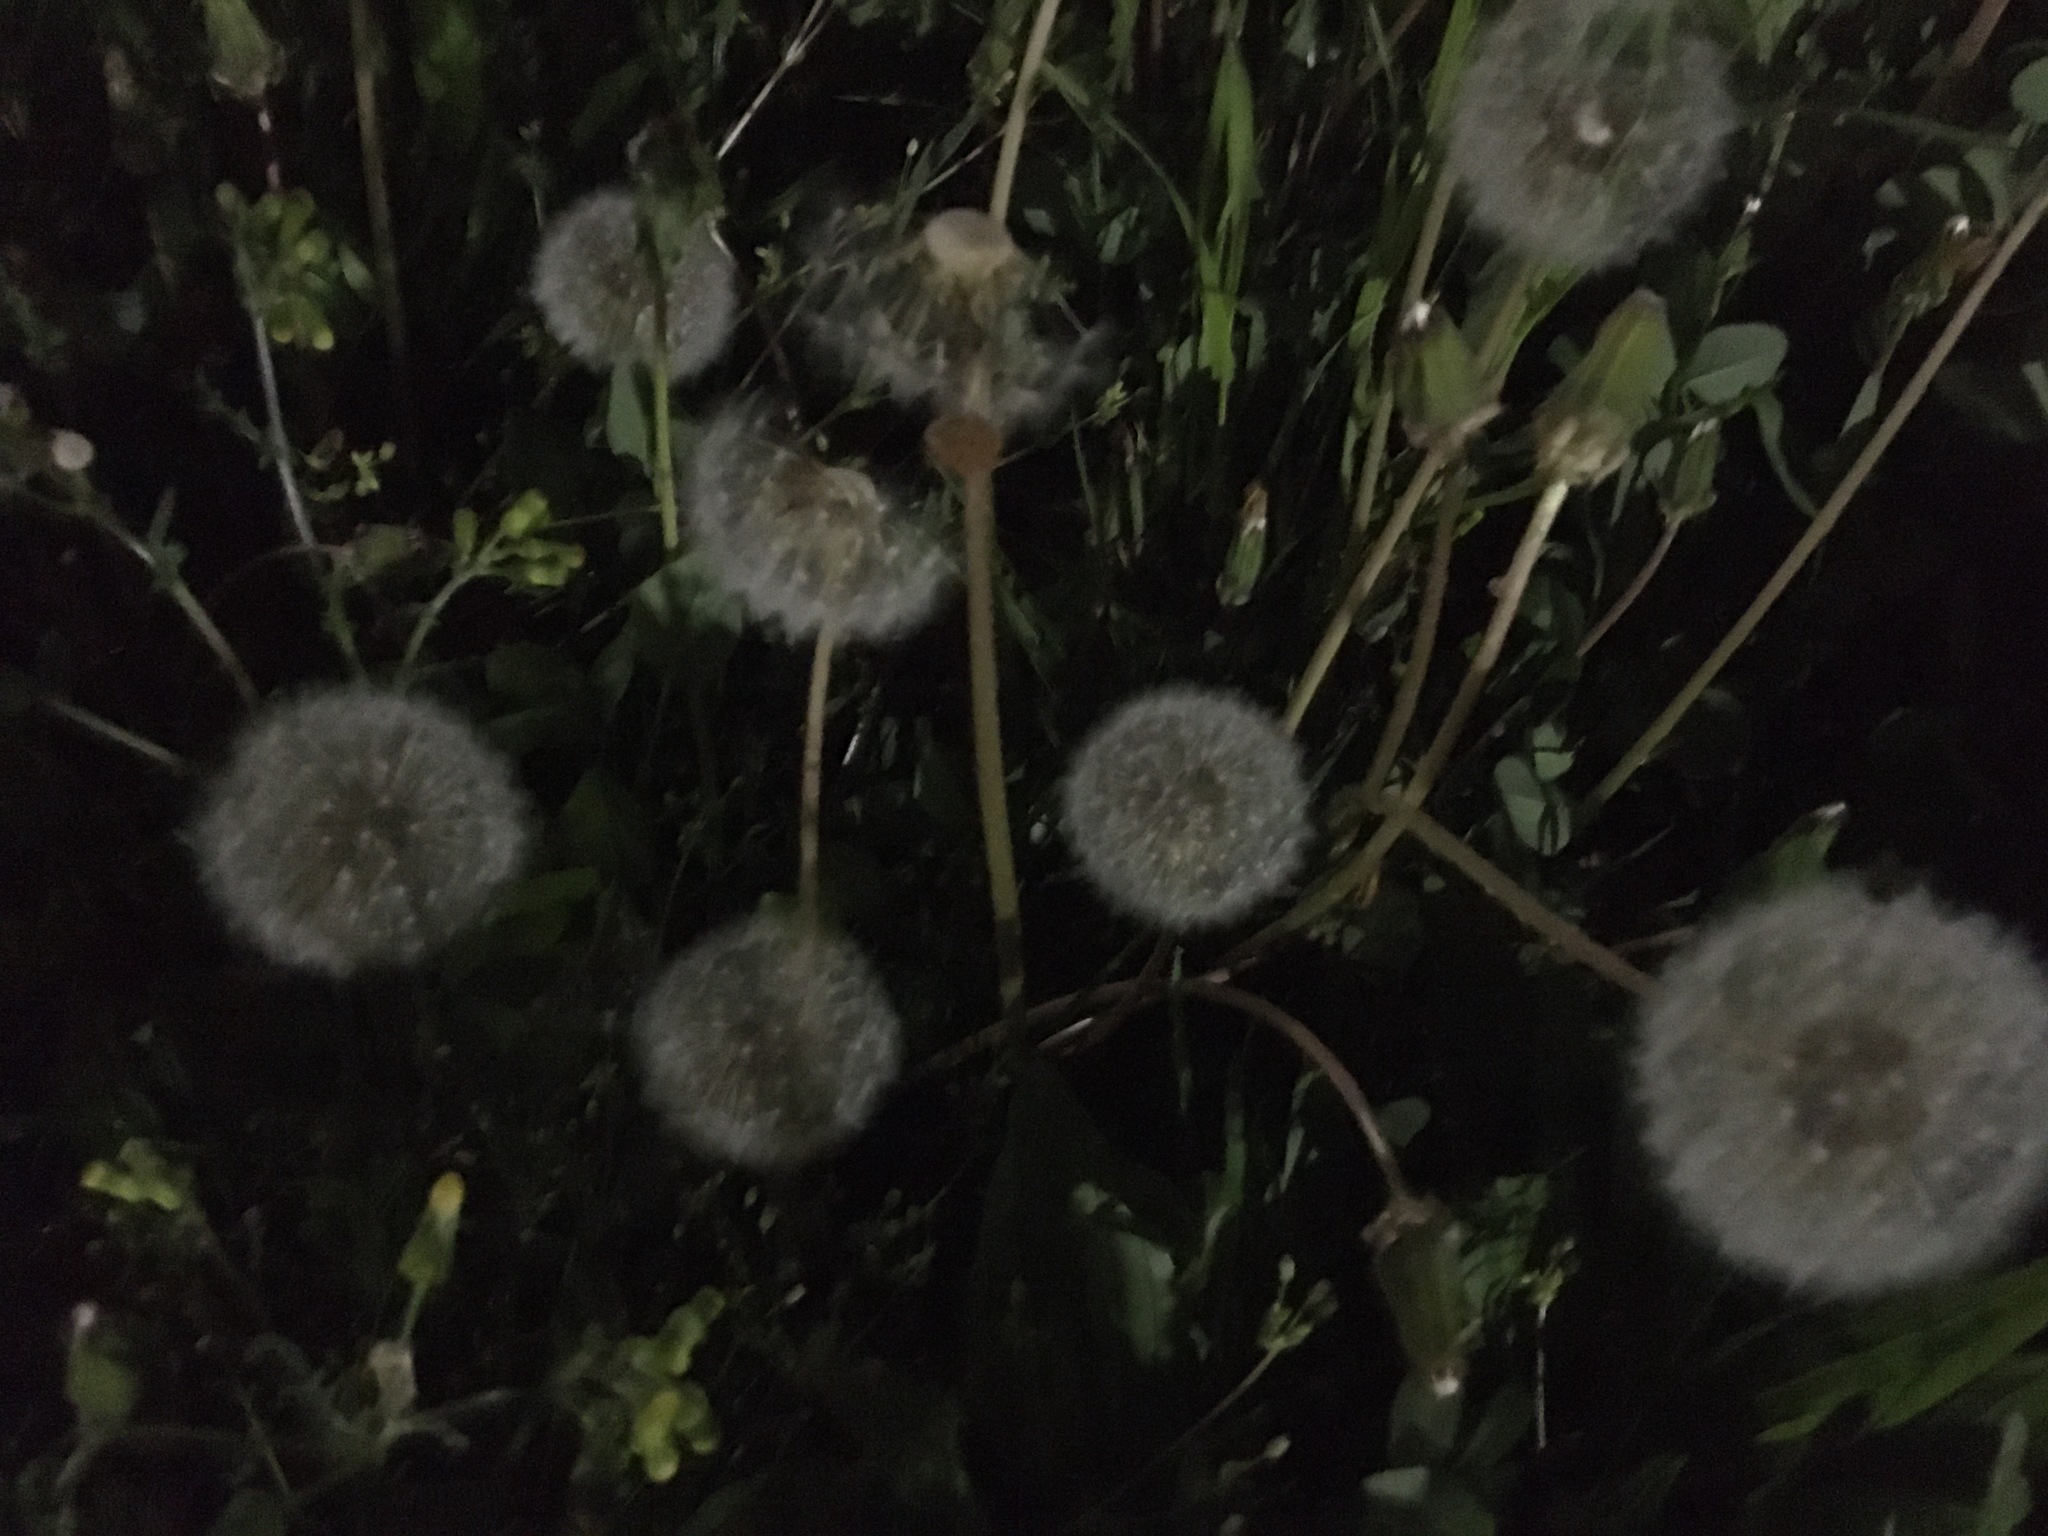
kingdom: Plantae
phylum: Tracheophyta
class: Magnoliopsida
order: Asterales
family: Asteraceae
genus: Taraxacum
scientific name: Taraxacum officinale
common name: Common dandelion
